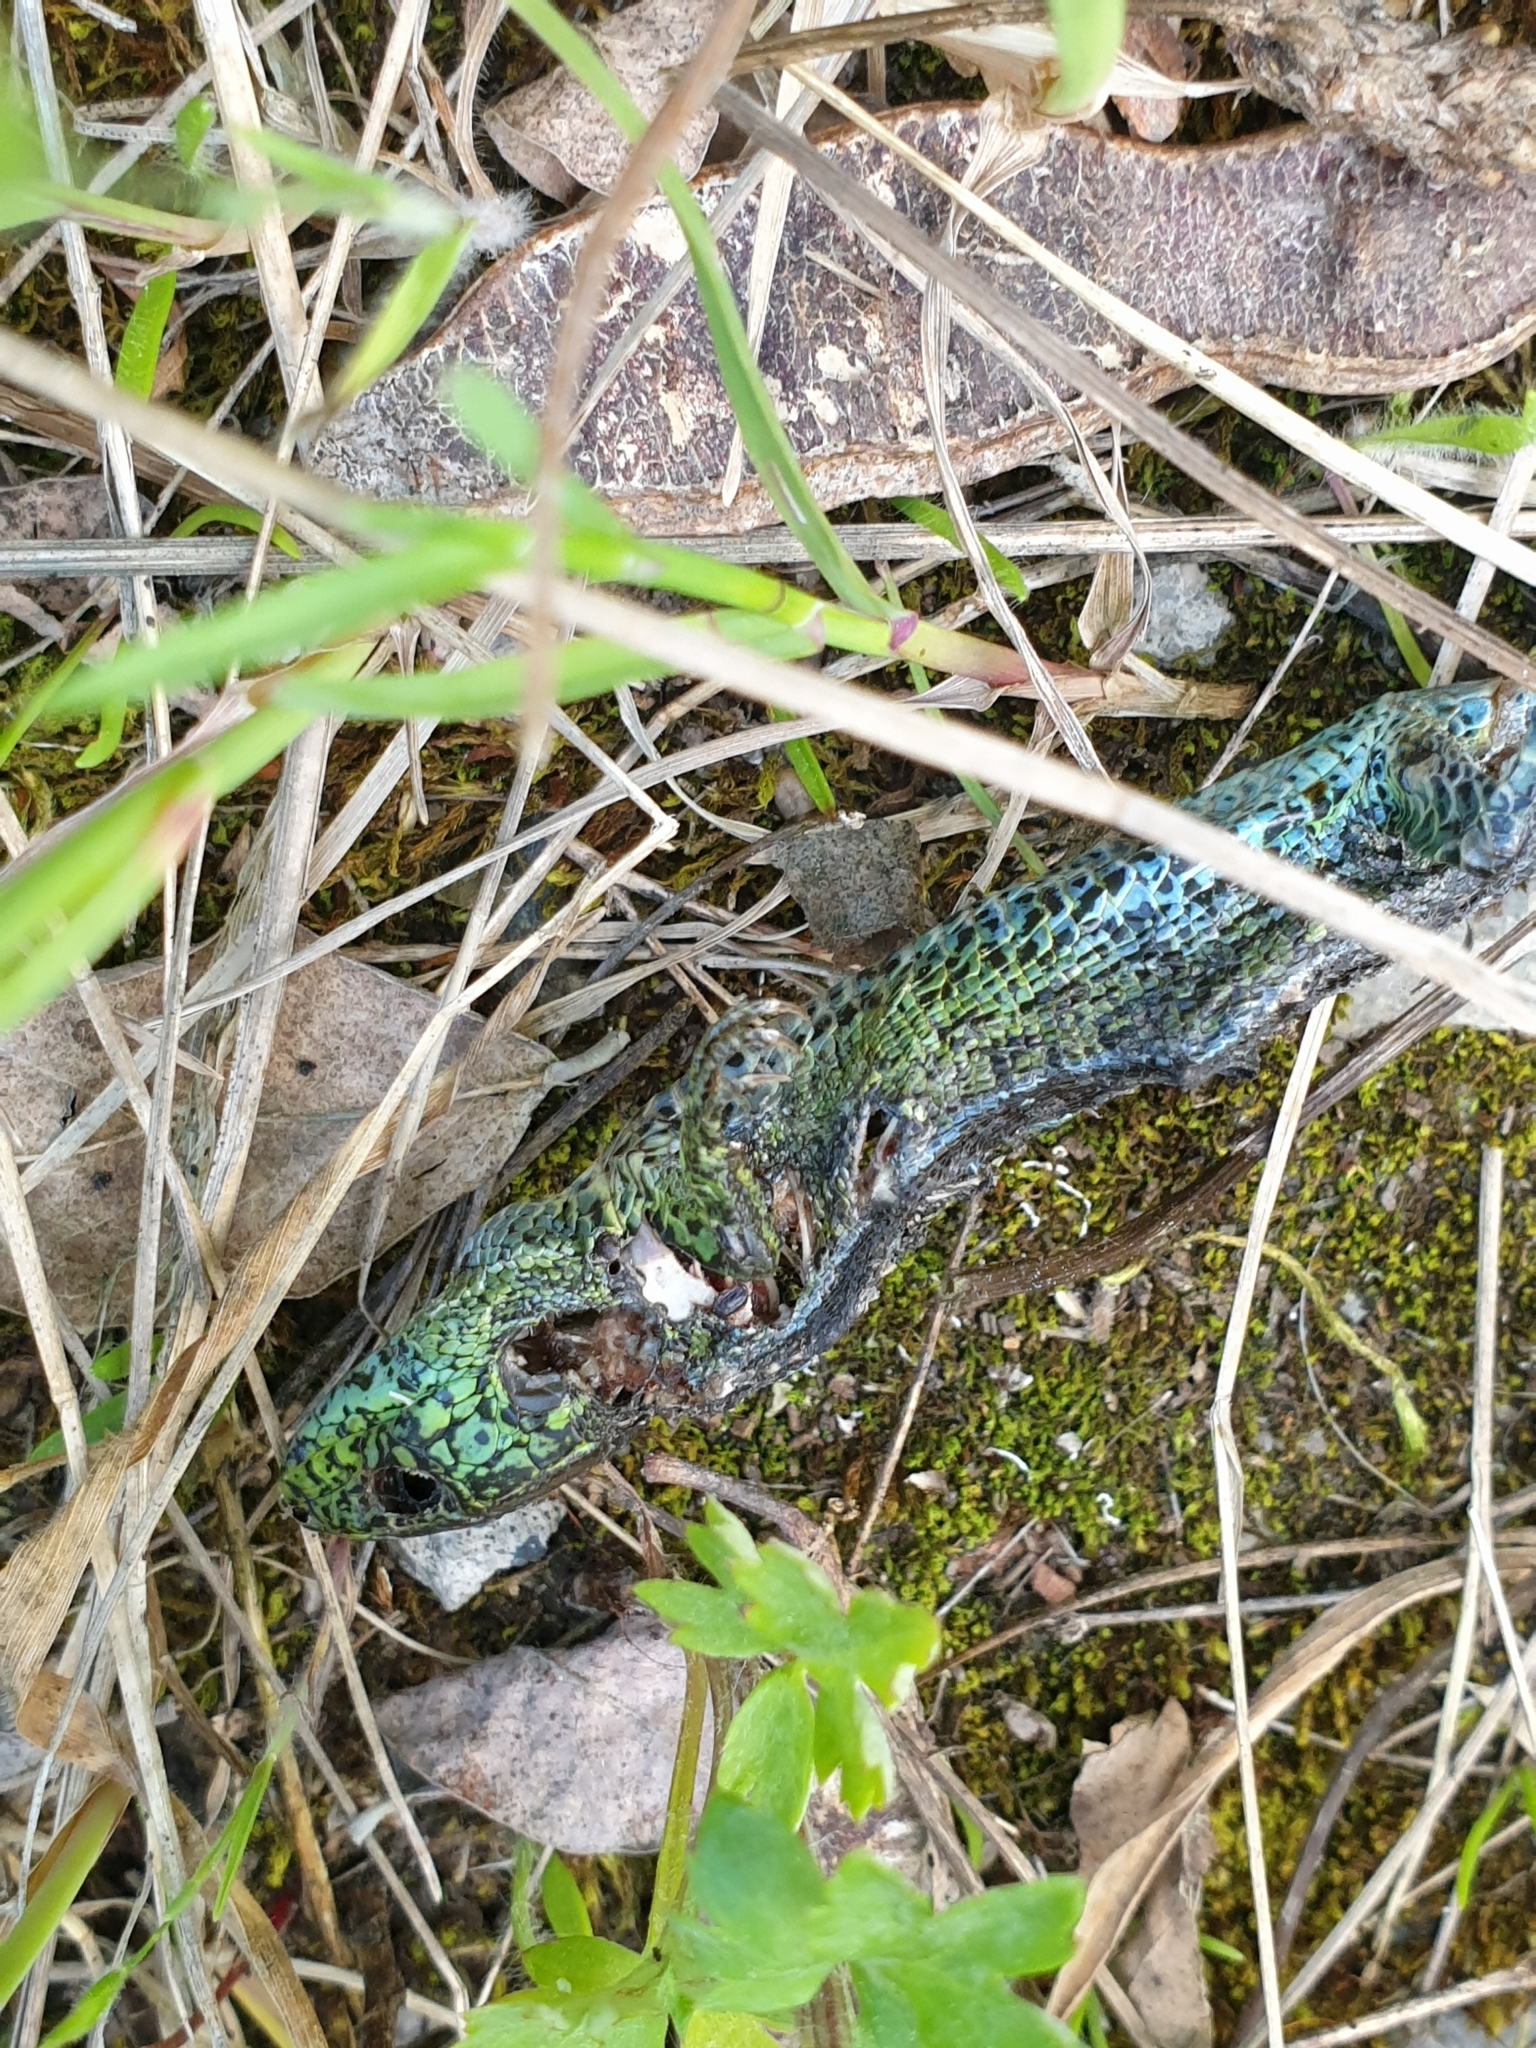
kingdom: Animalia
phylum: Chordata
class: Squamata
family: Lacertidae
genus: Lacerta
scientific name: Lacerta agilis
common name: Sand lizard
